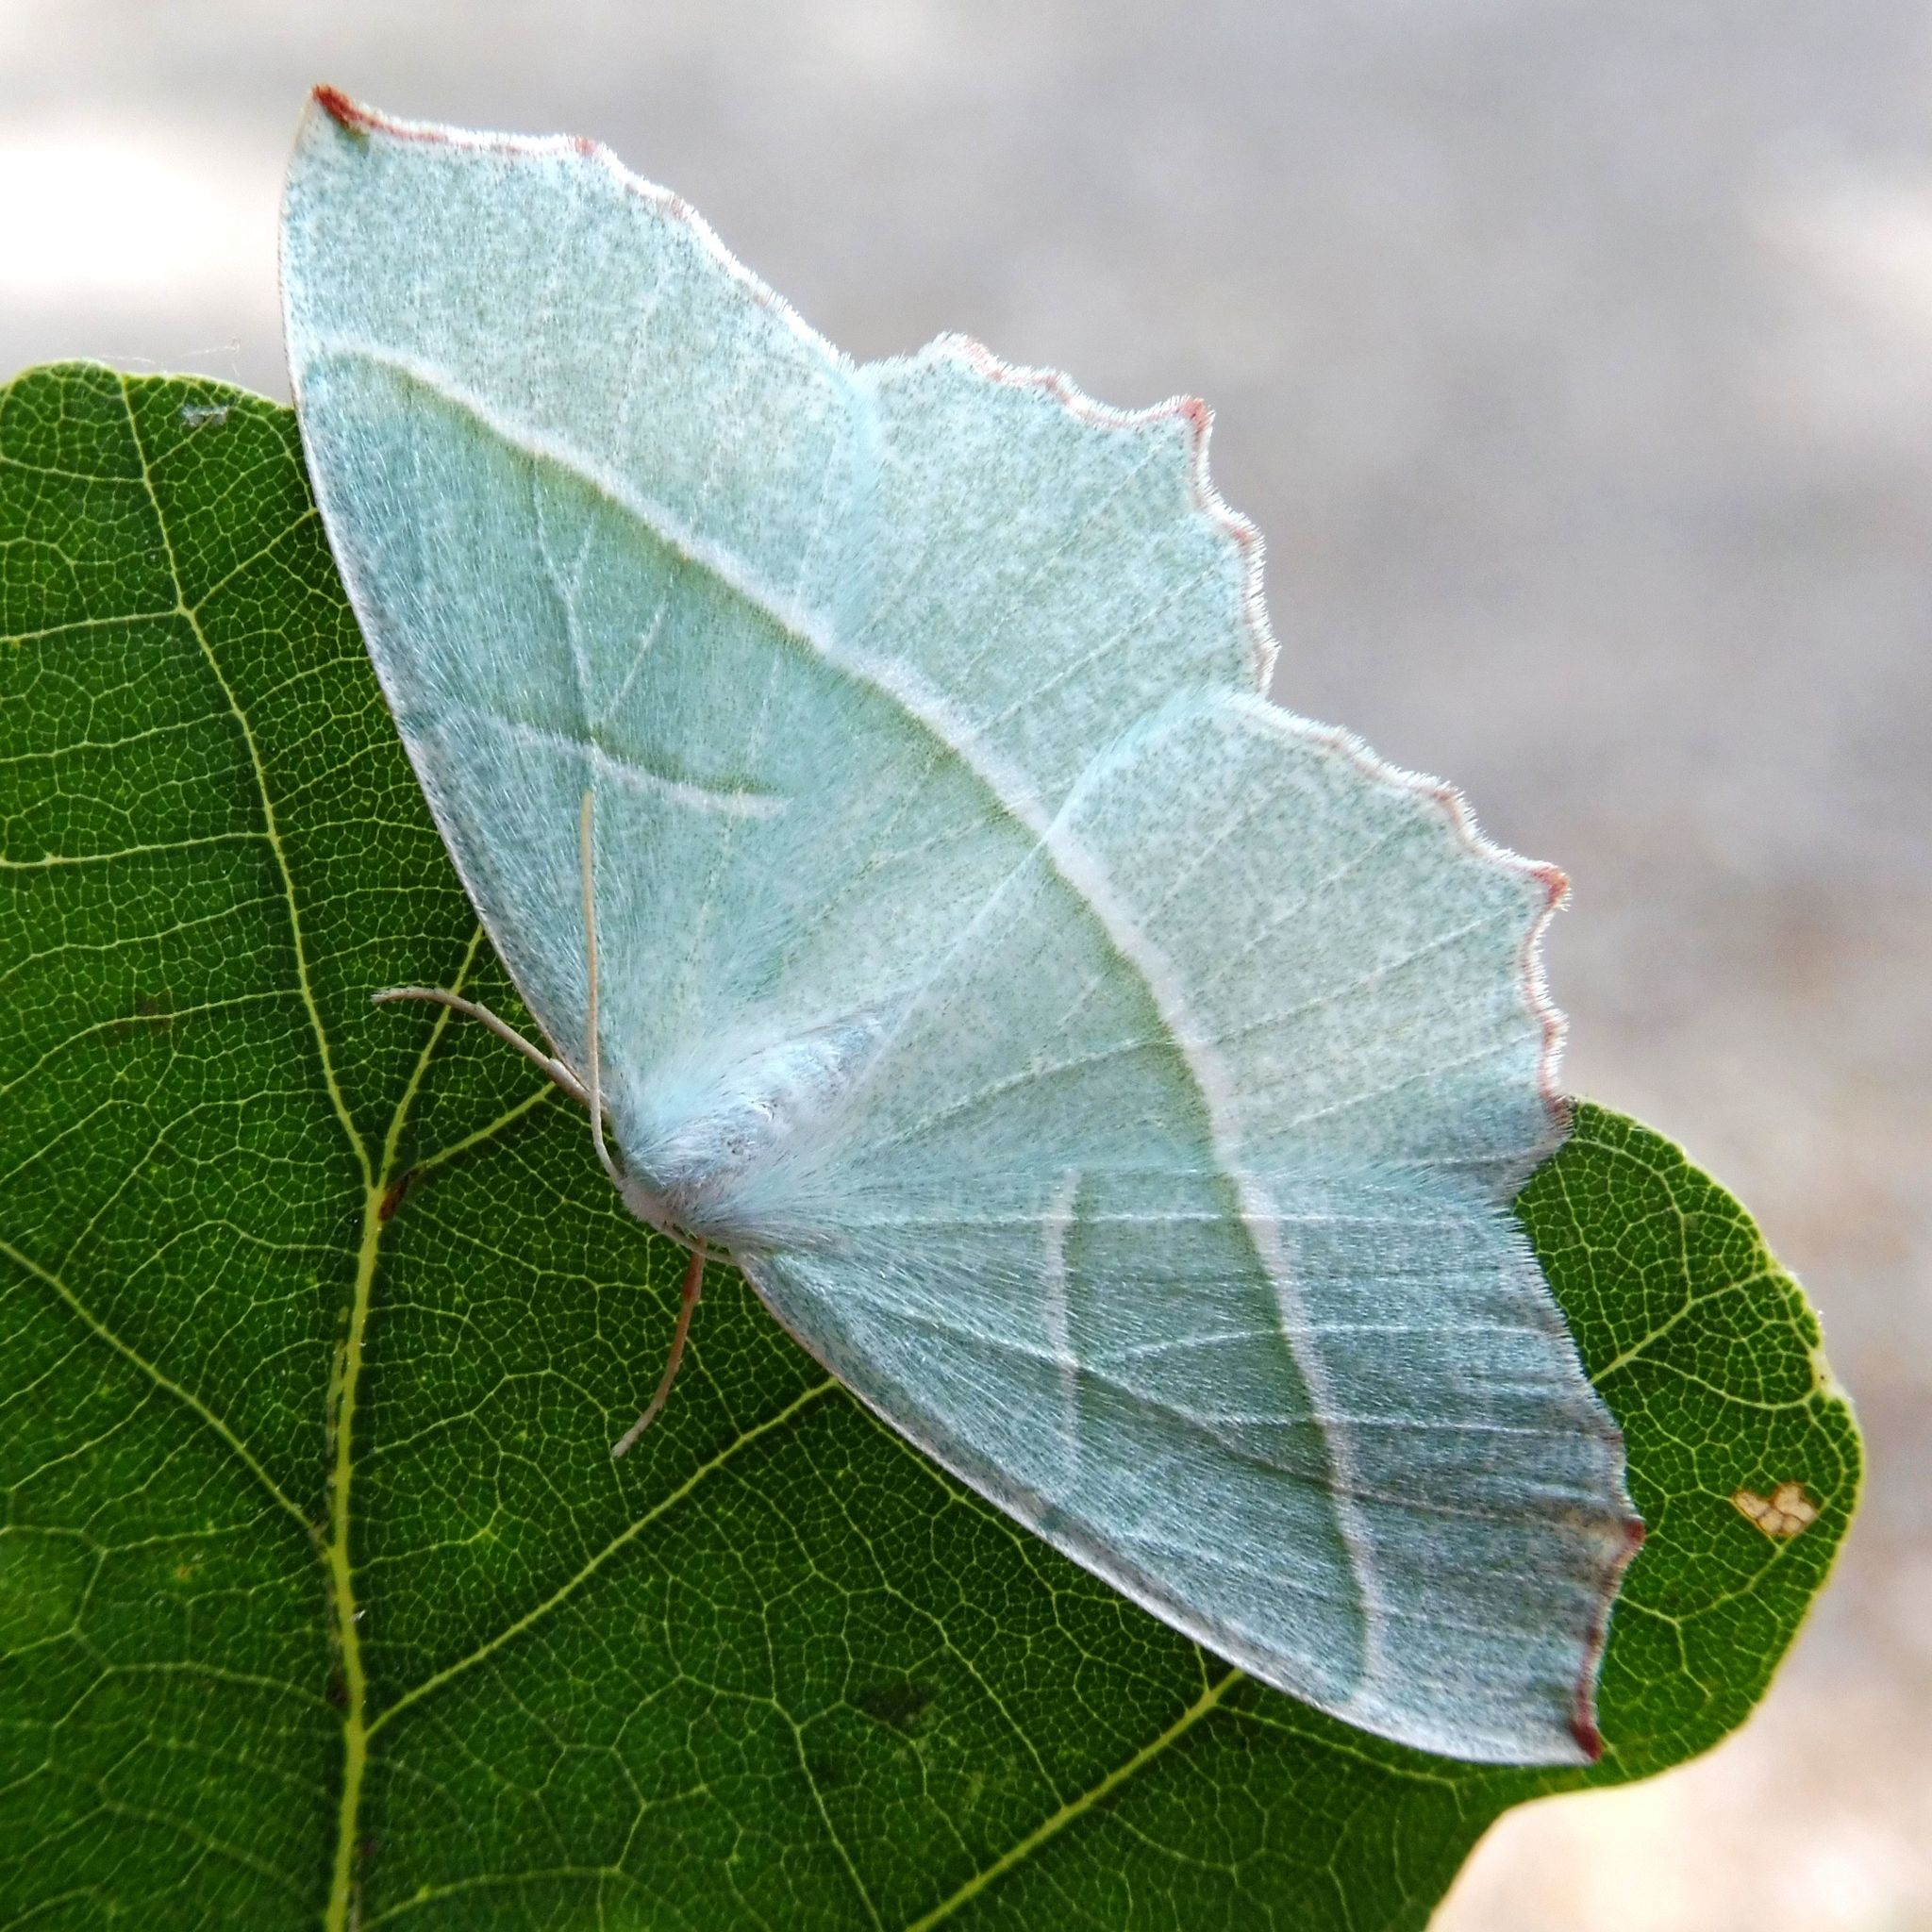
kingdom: Animalia
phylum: Arthropoda
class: Insecta
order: Lepidoptera
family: Geometridae
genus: Campaea
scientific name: Campaea margaritaria
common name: Light emerald
